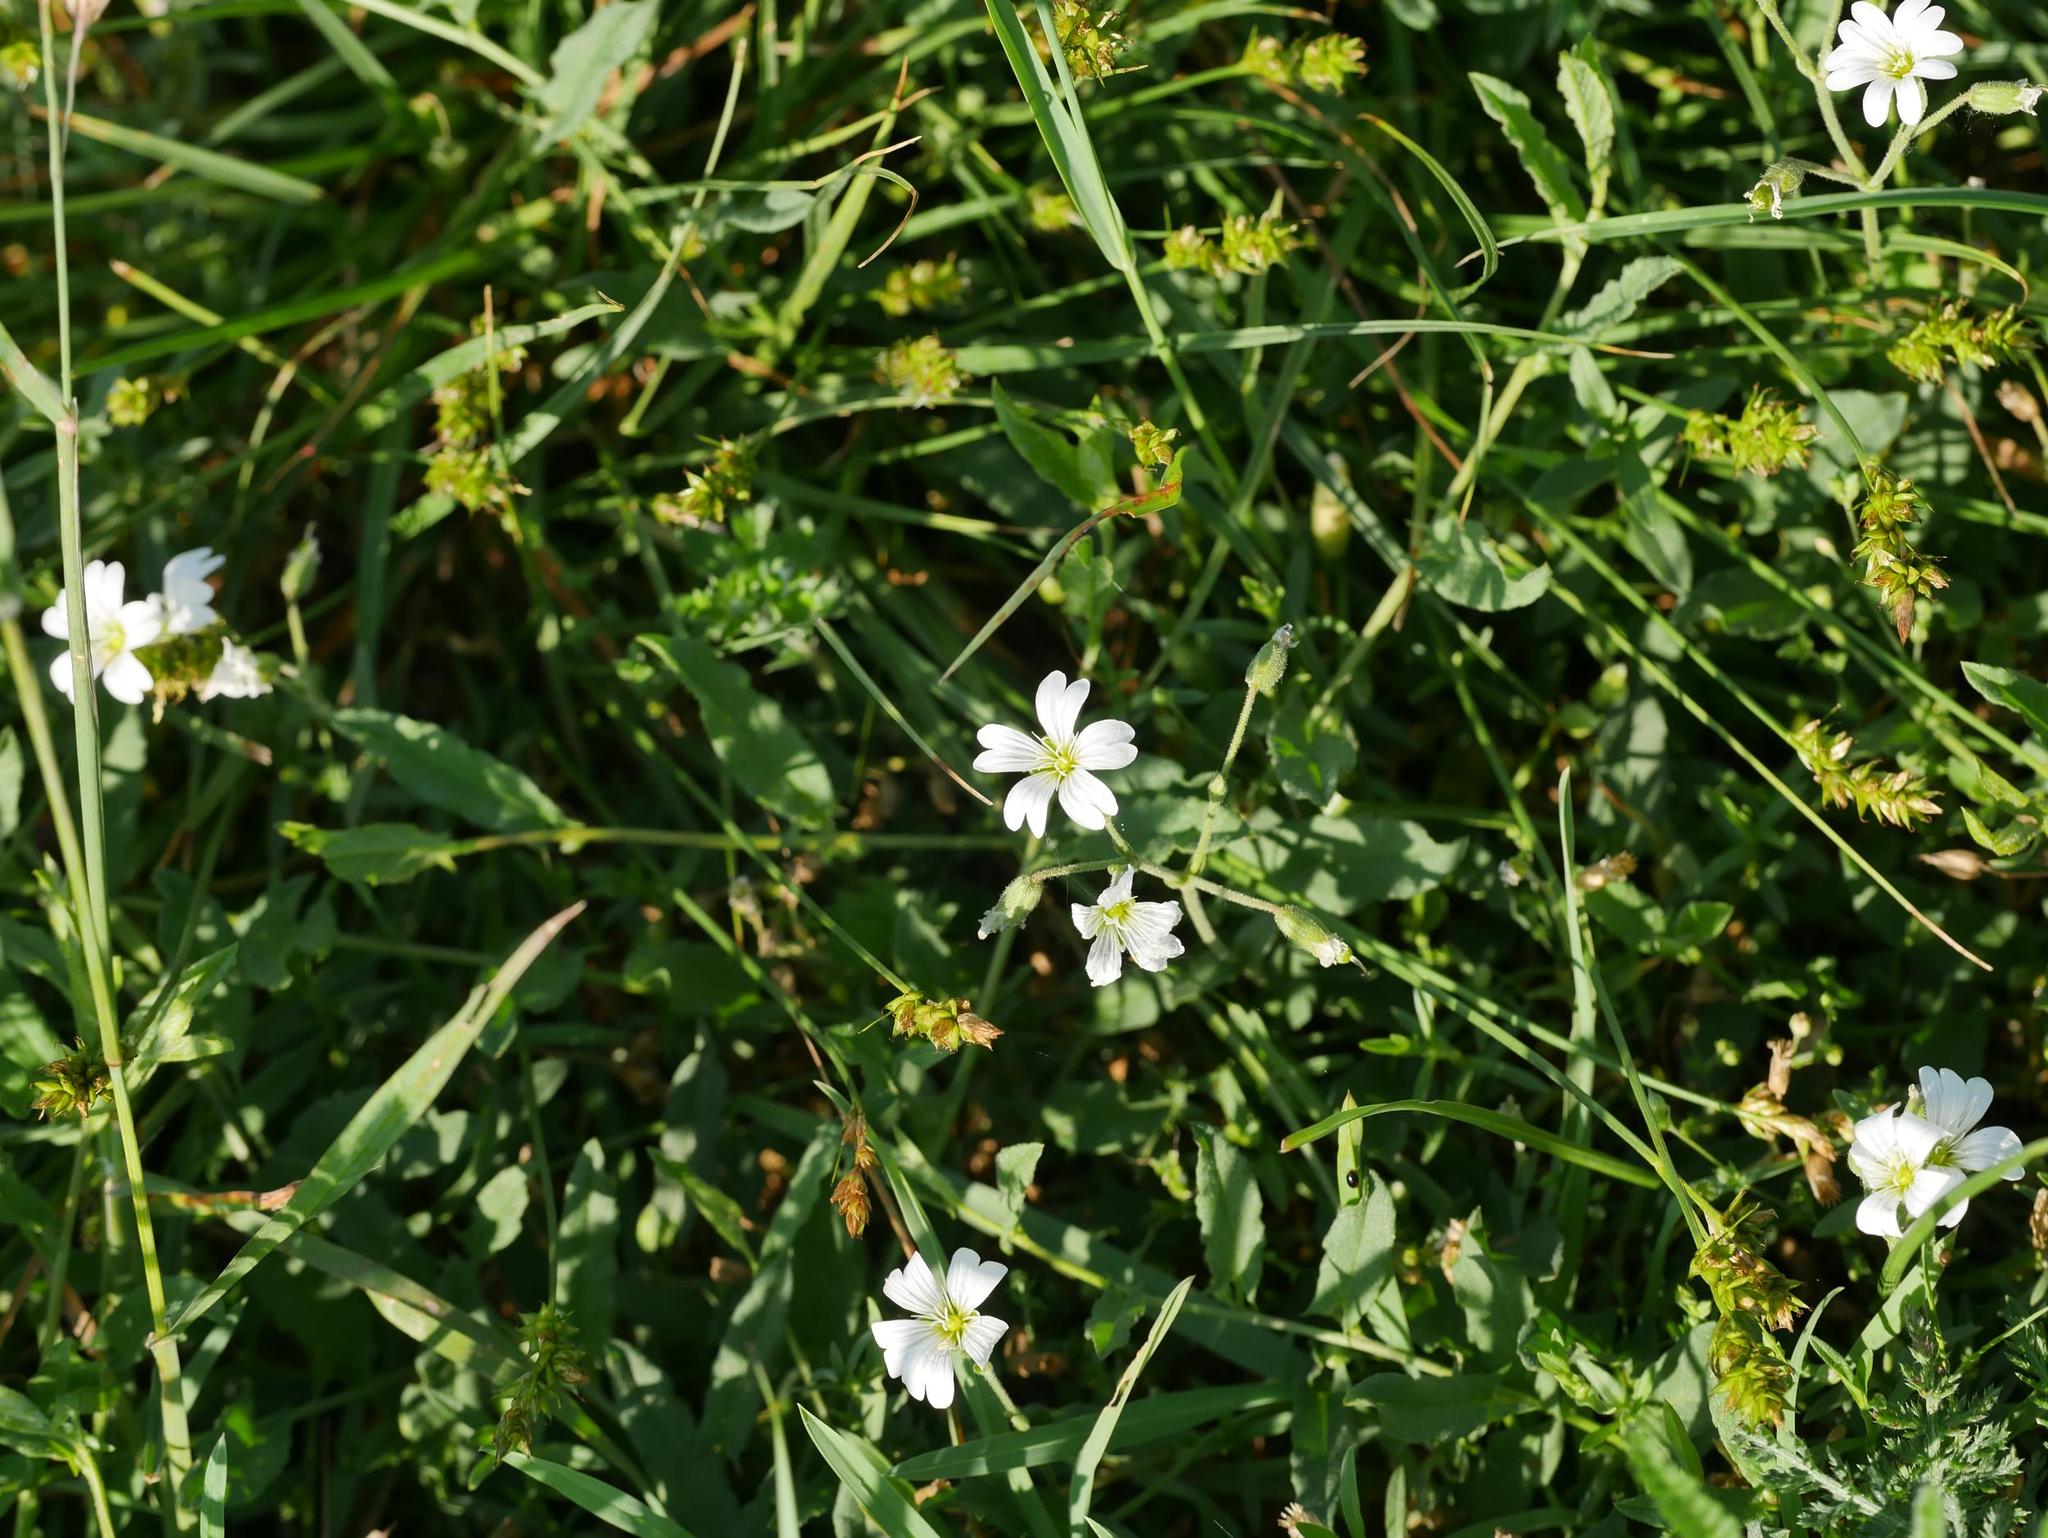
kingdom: Plantae
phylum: Tracheophyta
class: Magnoliopsida
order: Caryophyllales
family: Caryophyllaceae
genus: Rabelera
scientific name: Rabelera holostea
